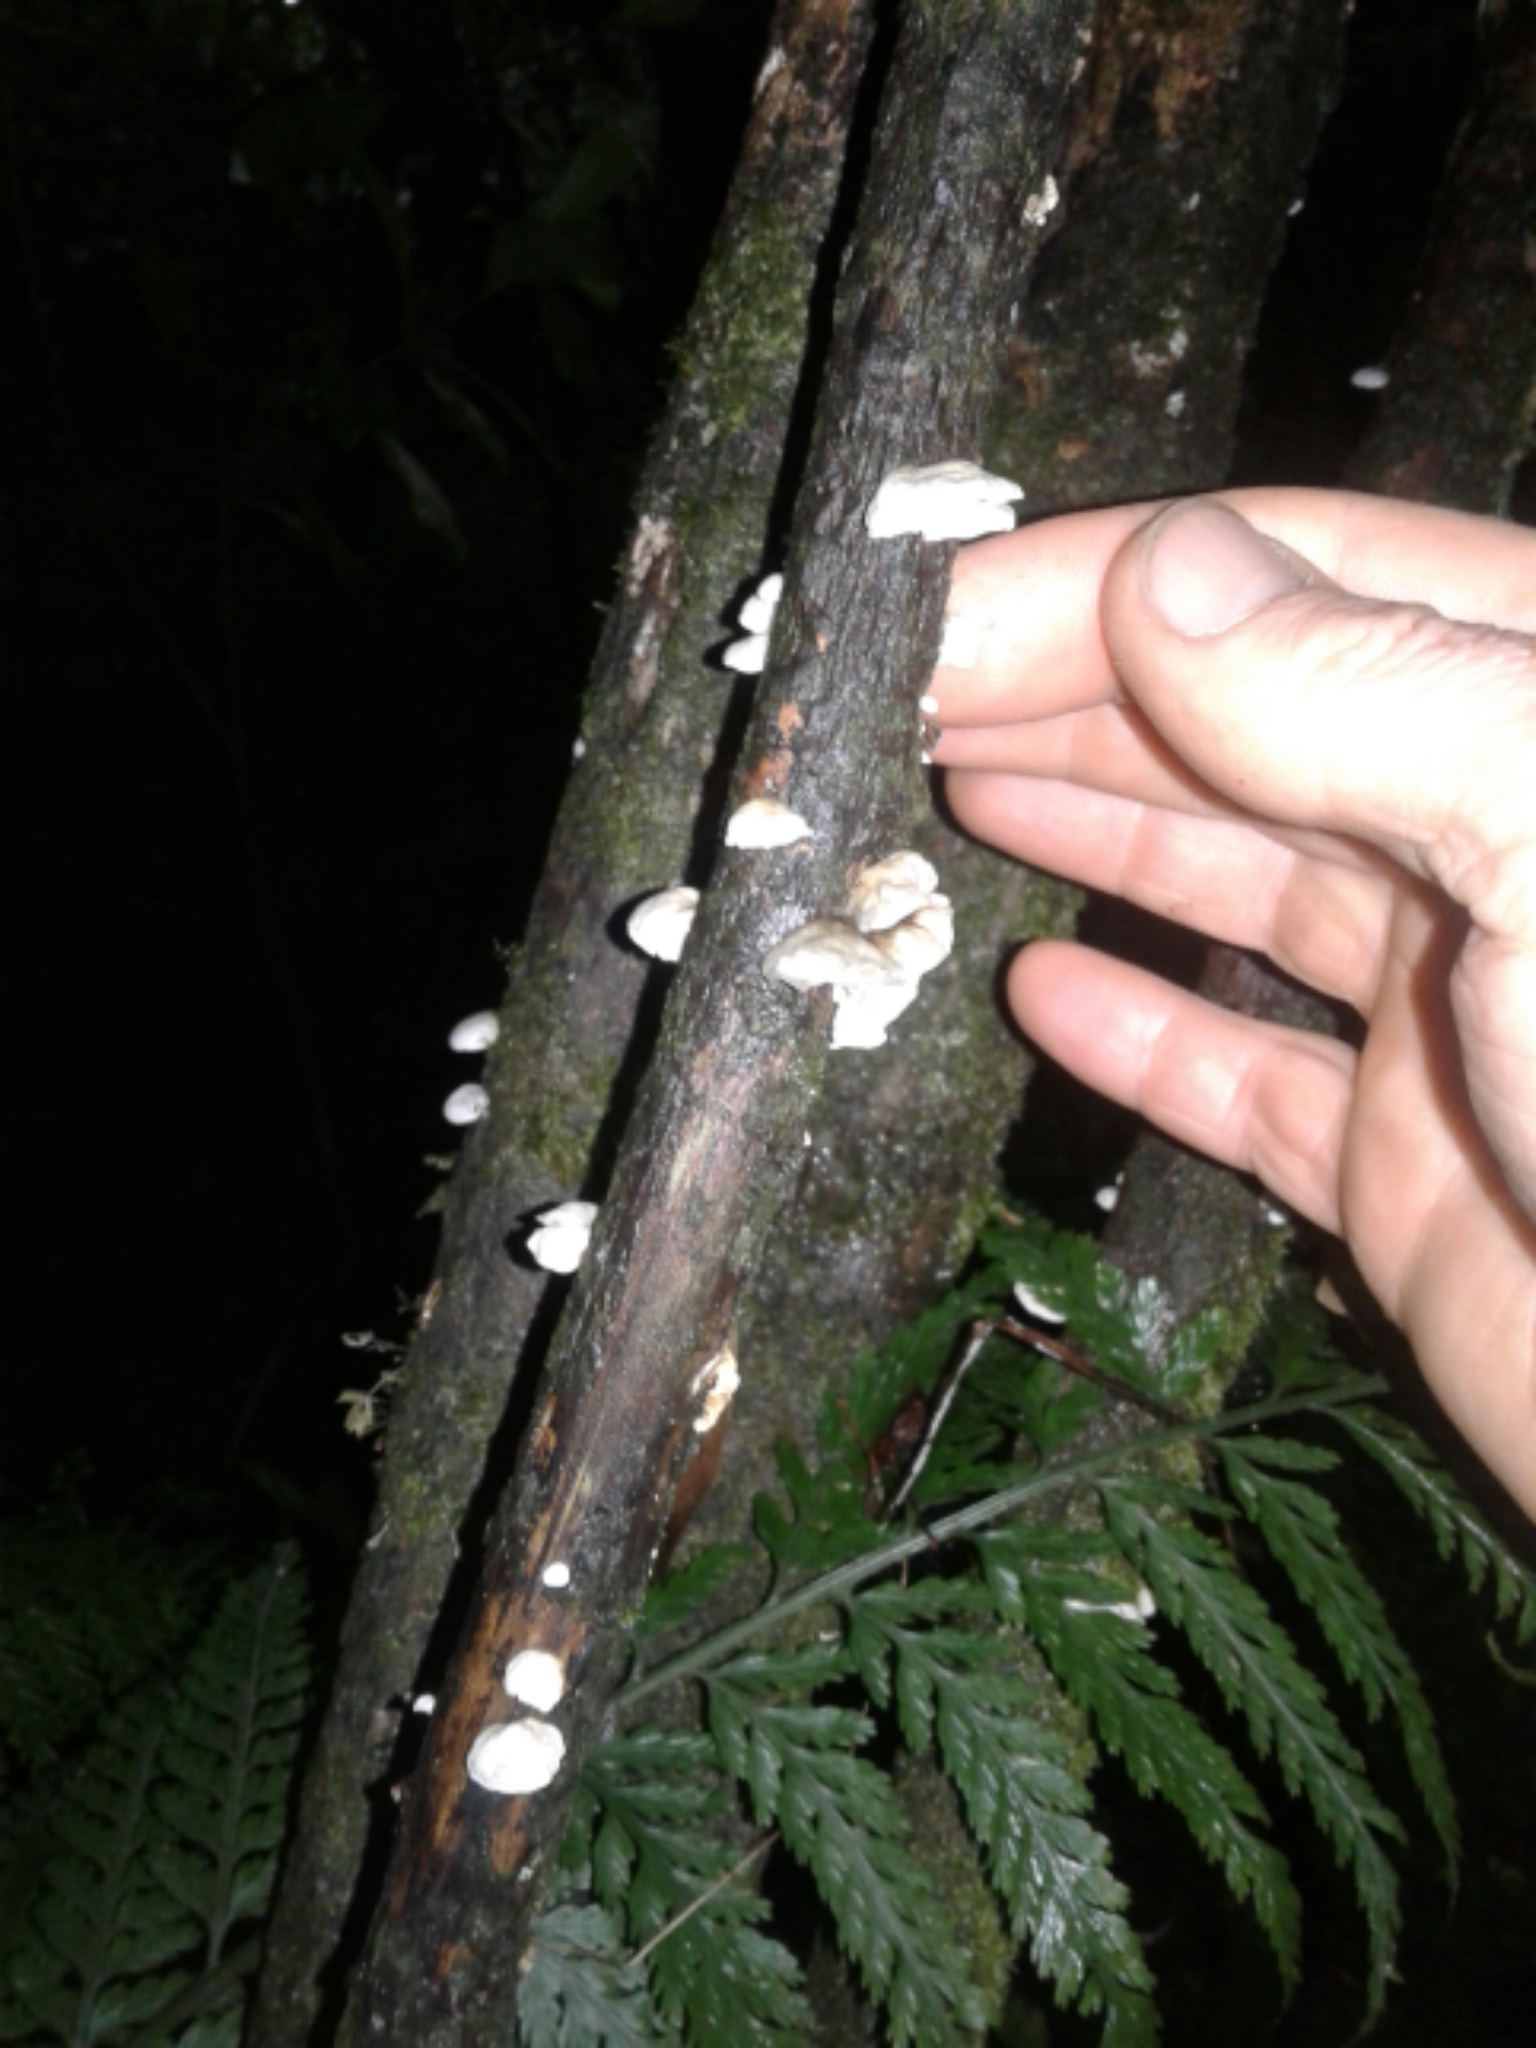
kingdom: Fungi
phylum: Basidiomycota
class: Agaricomycetes
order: Agaricales
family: Marasmiaceae
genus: Campanella
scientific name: Campanella tristis
